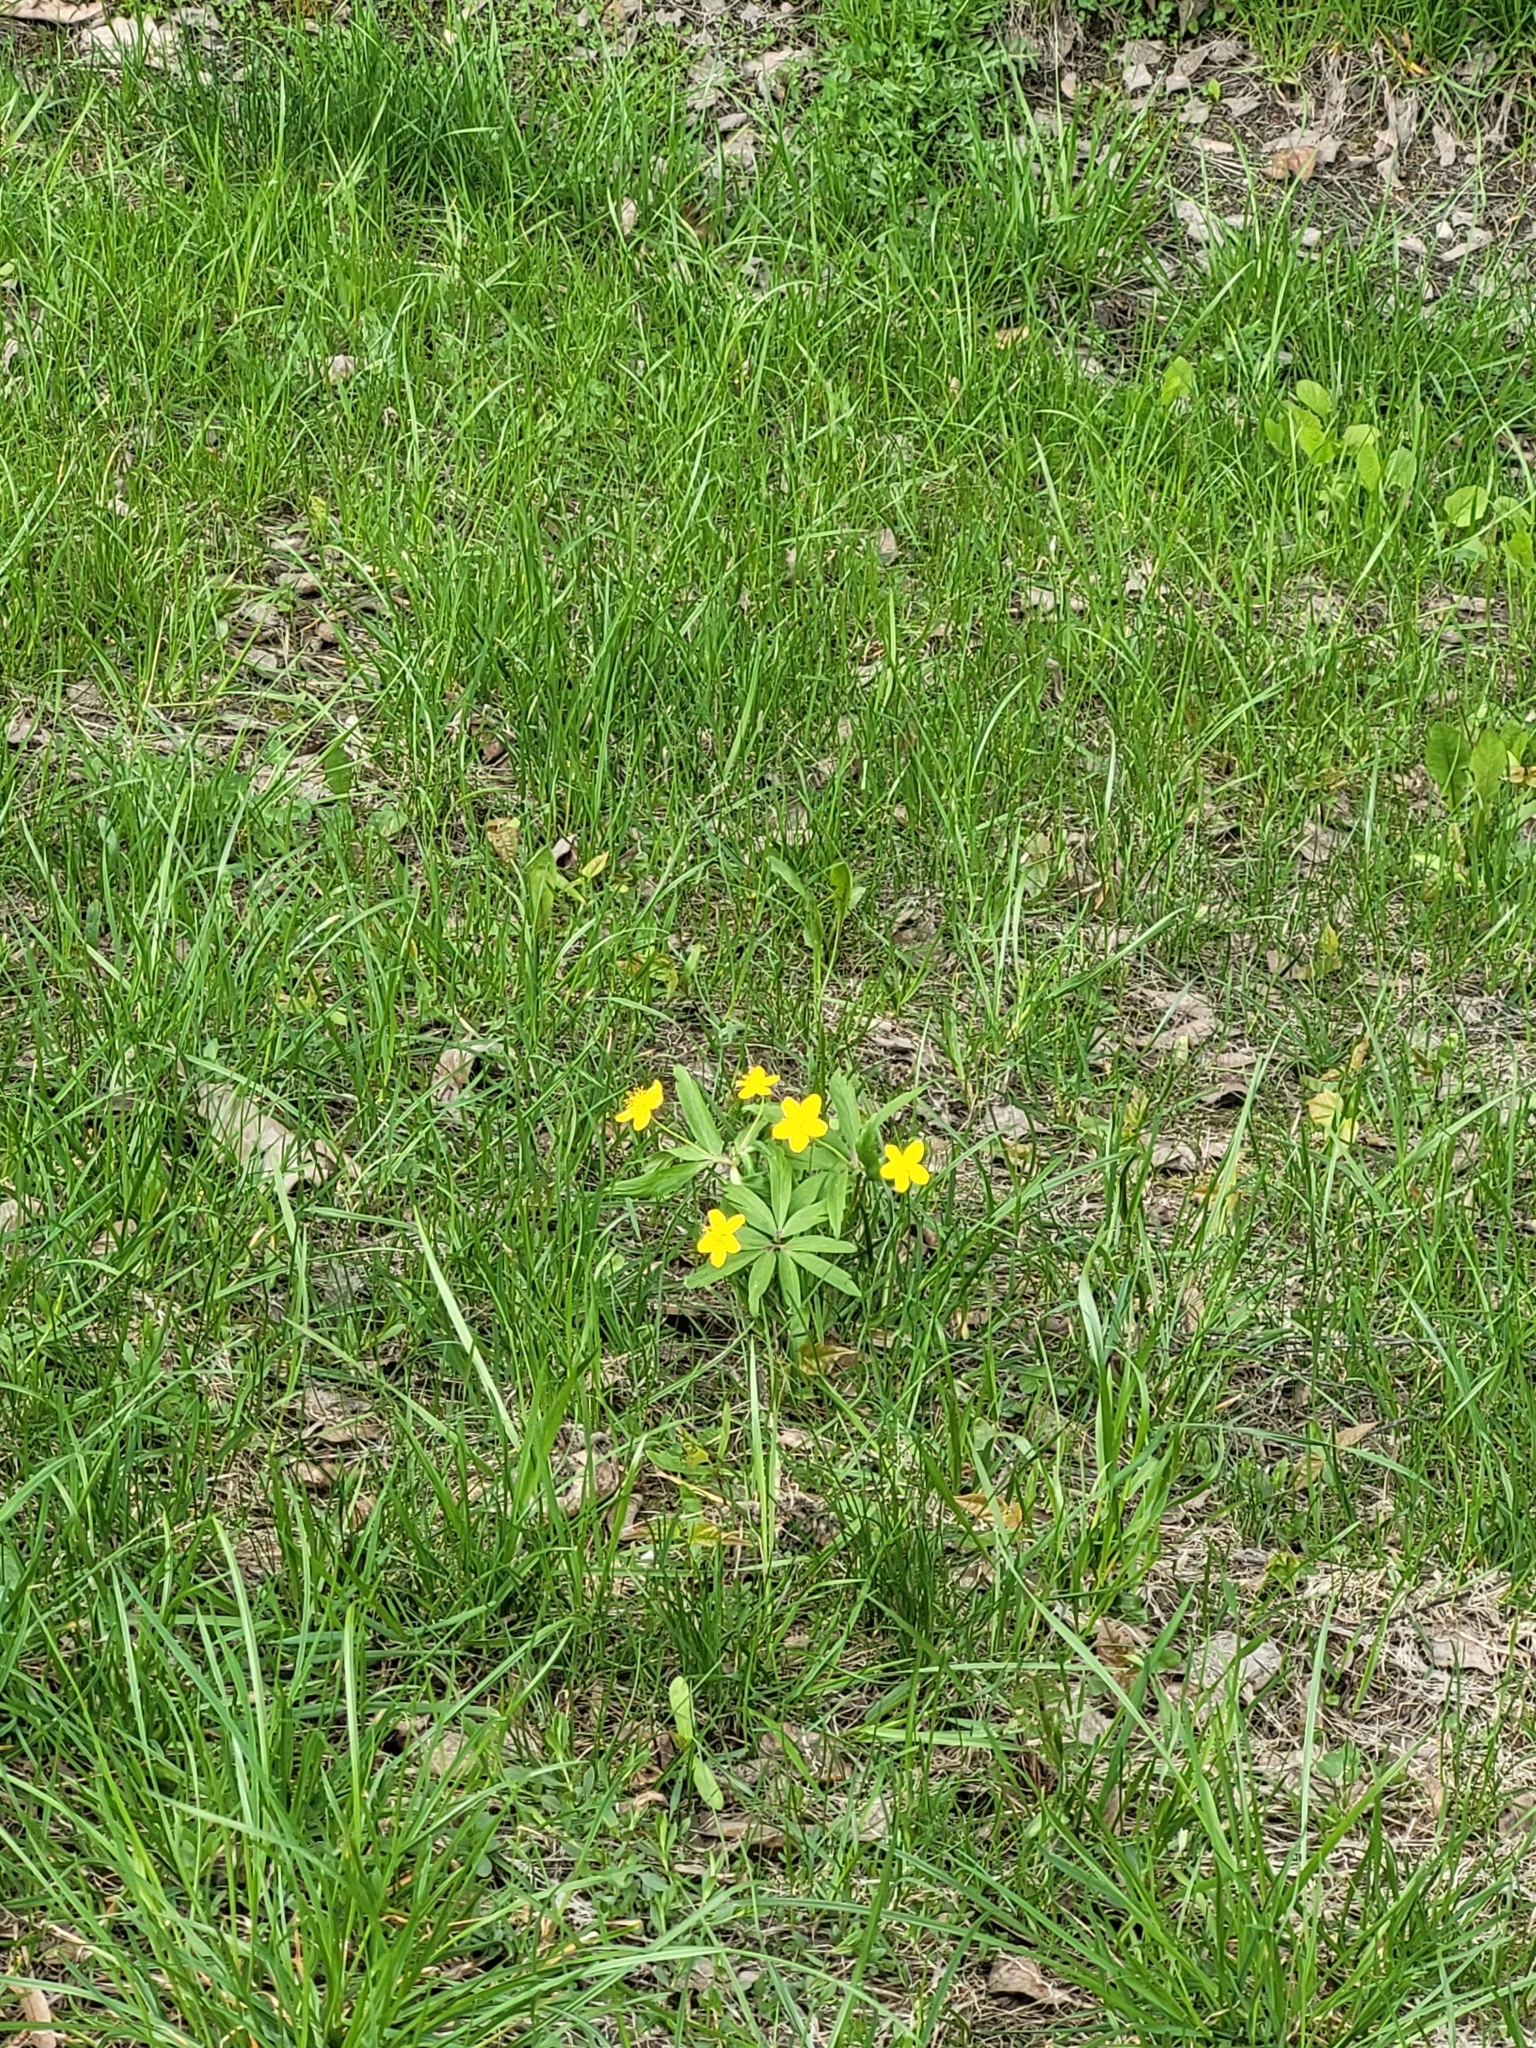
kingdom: Plantae
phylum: Tracheophyta
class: Magnoliopsida
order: Ranunculales
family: Ranunculaceae
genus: Anemone
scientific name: Anemone ranunculoides
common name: Yellow anemone
